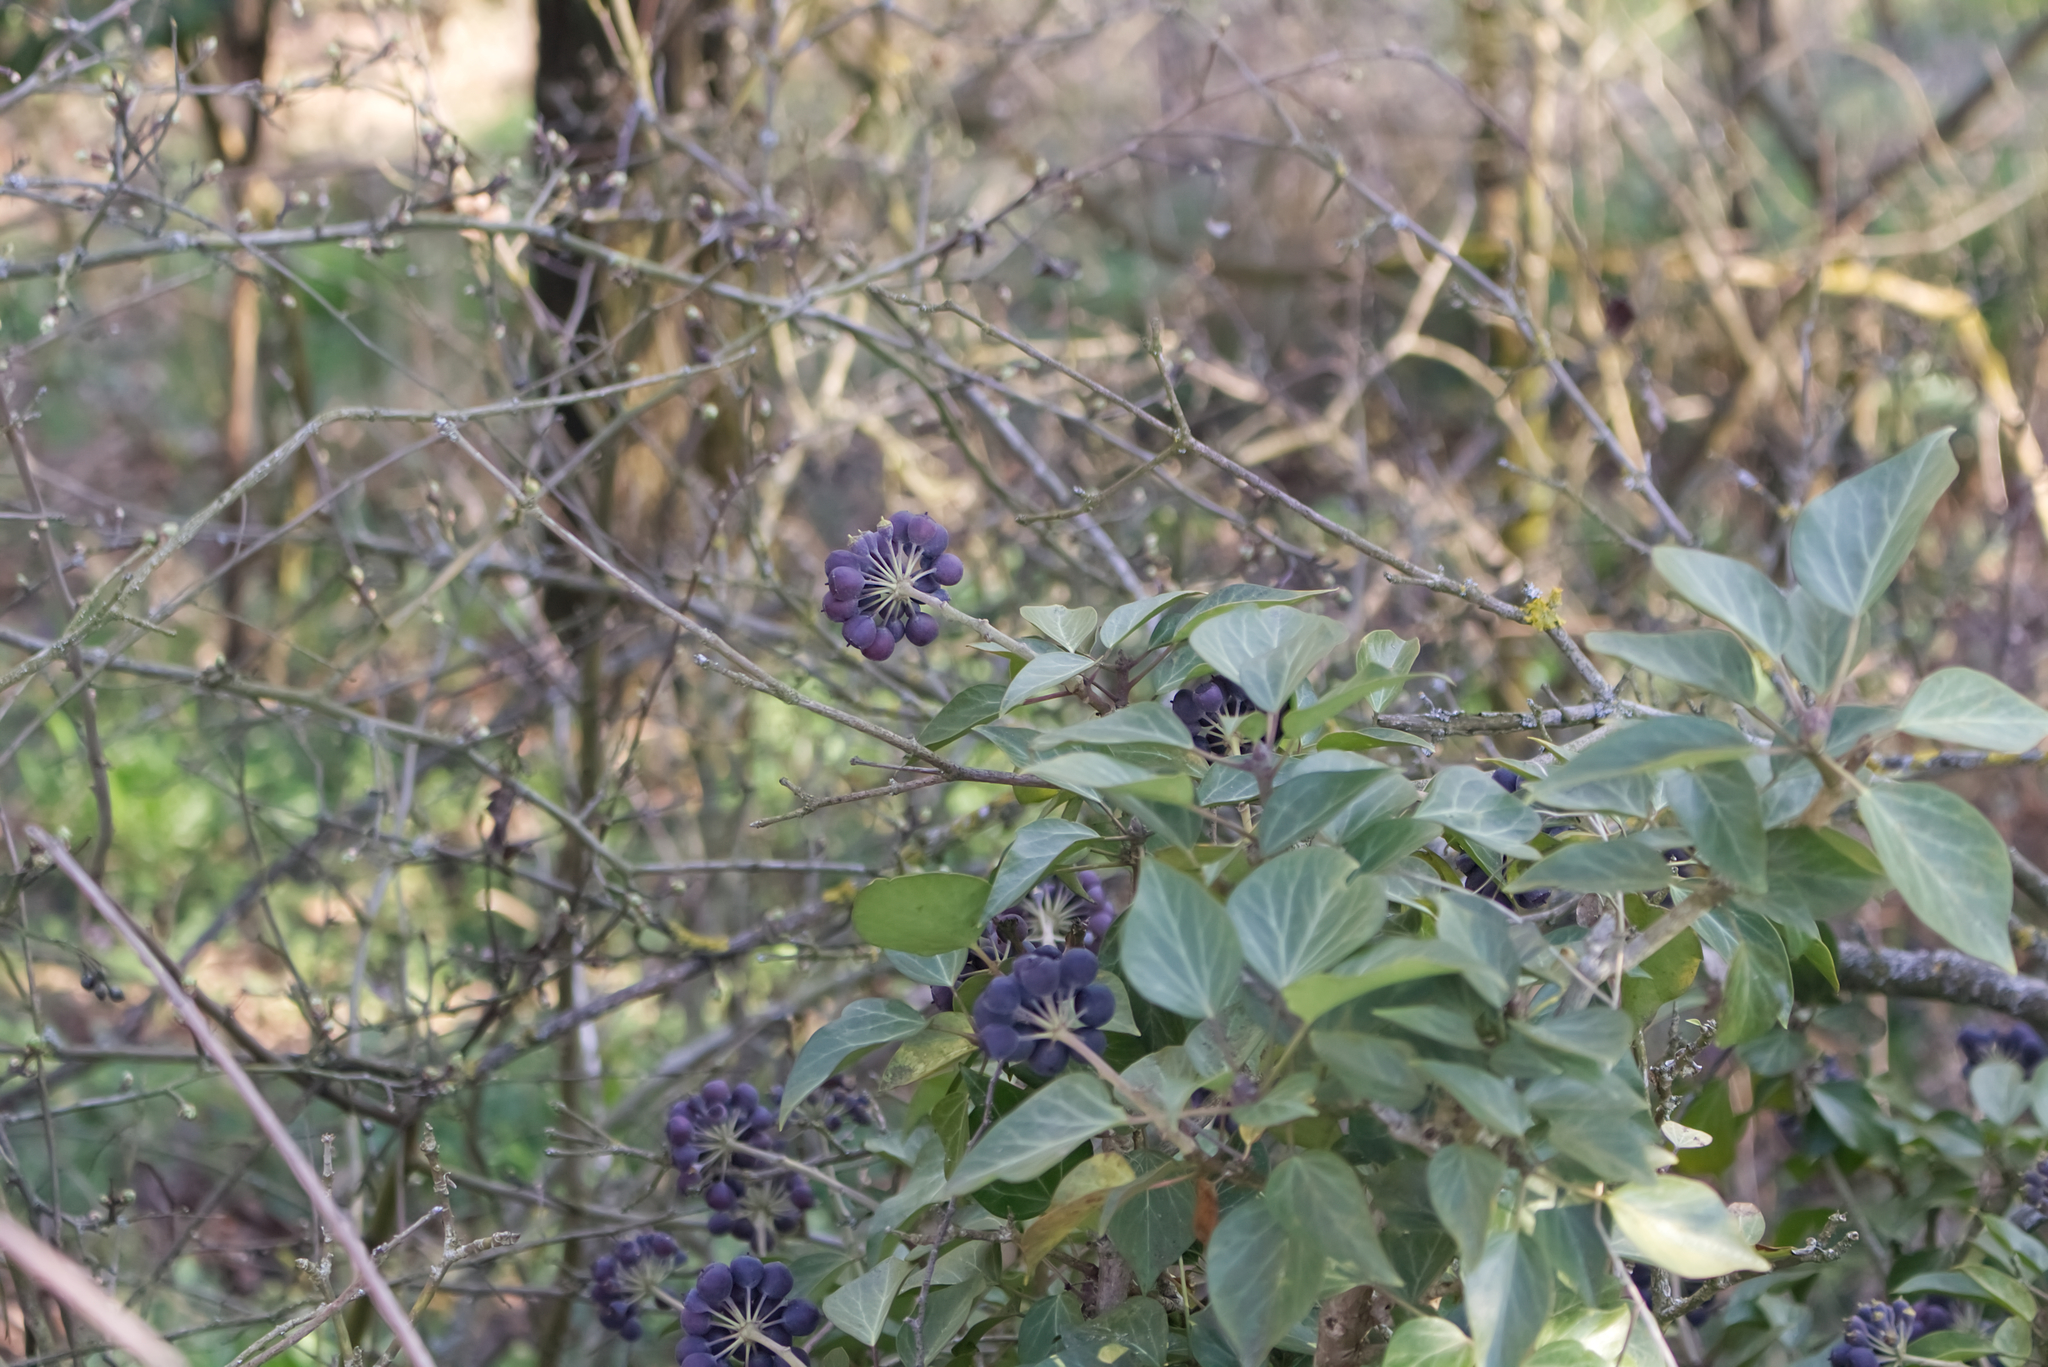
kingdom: Plantae
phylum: Tracheophyta
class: Magnoliopsida
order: Apiales
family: Araliaceae
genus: Hedera
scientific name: Hedera helix
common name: Ivy
